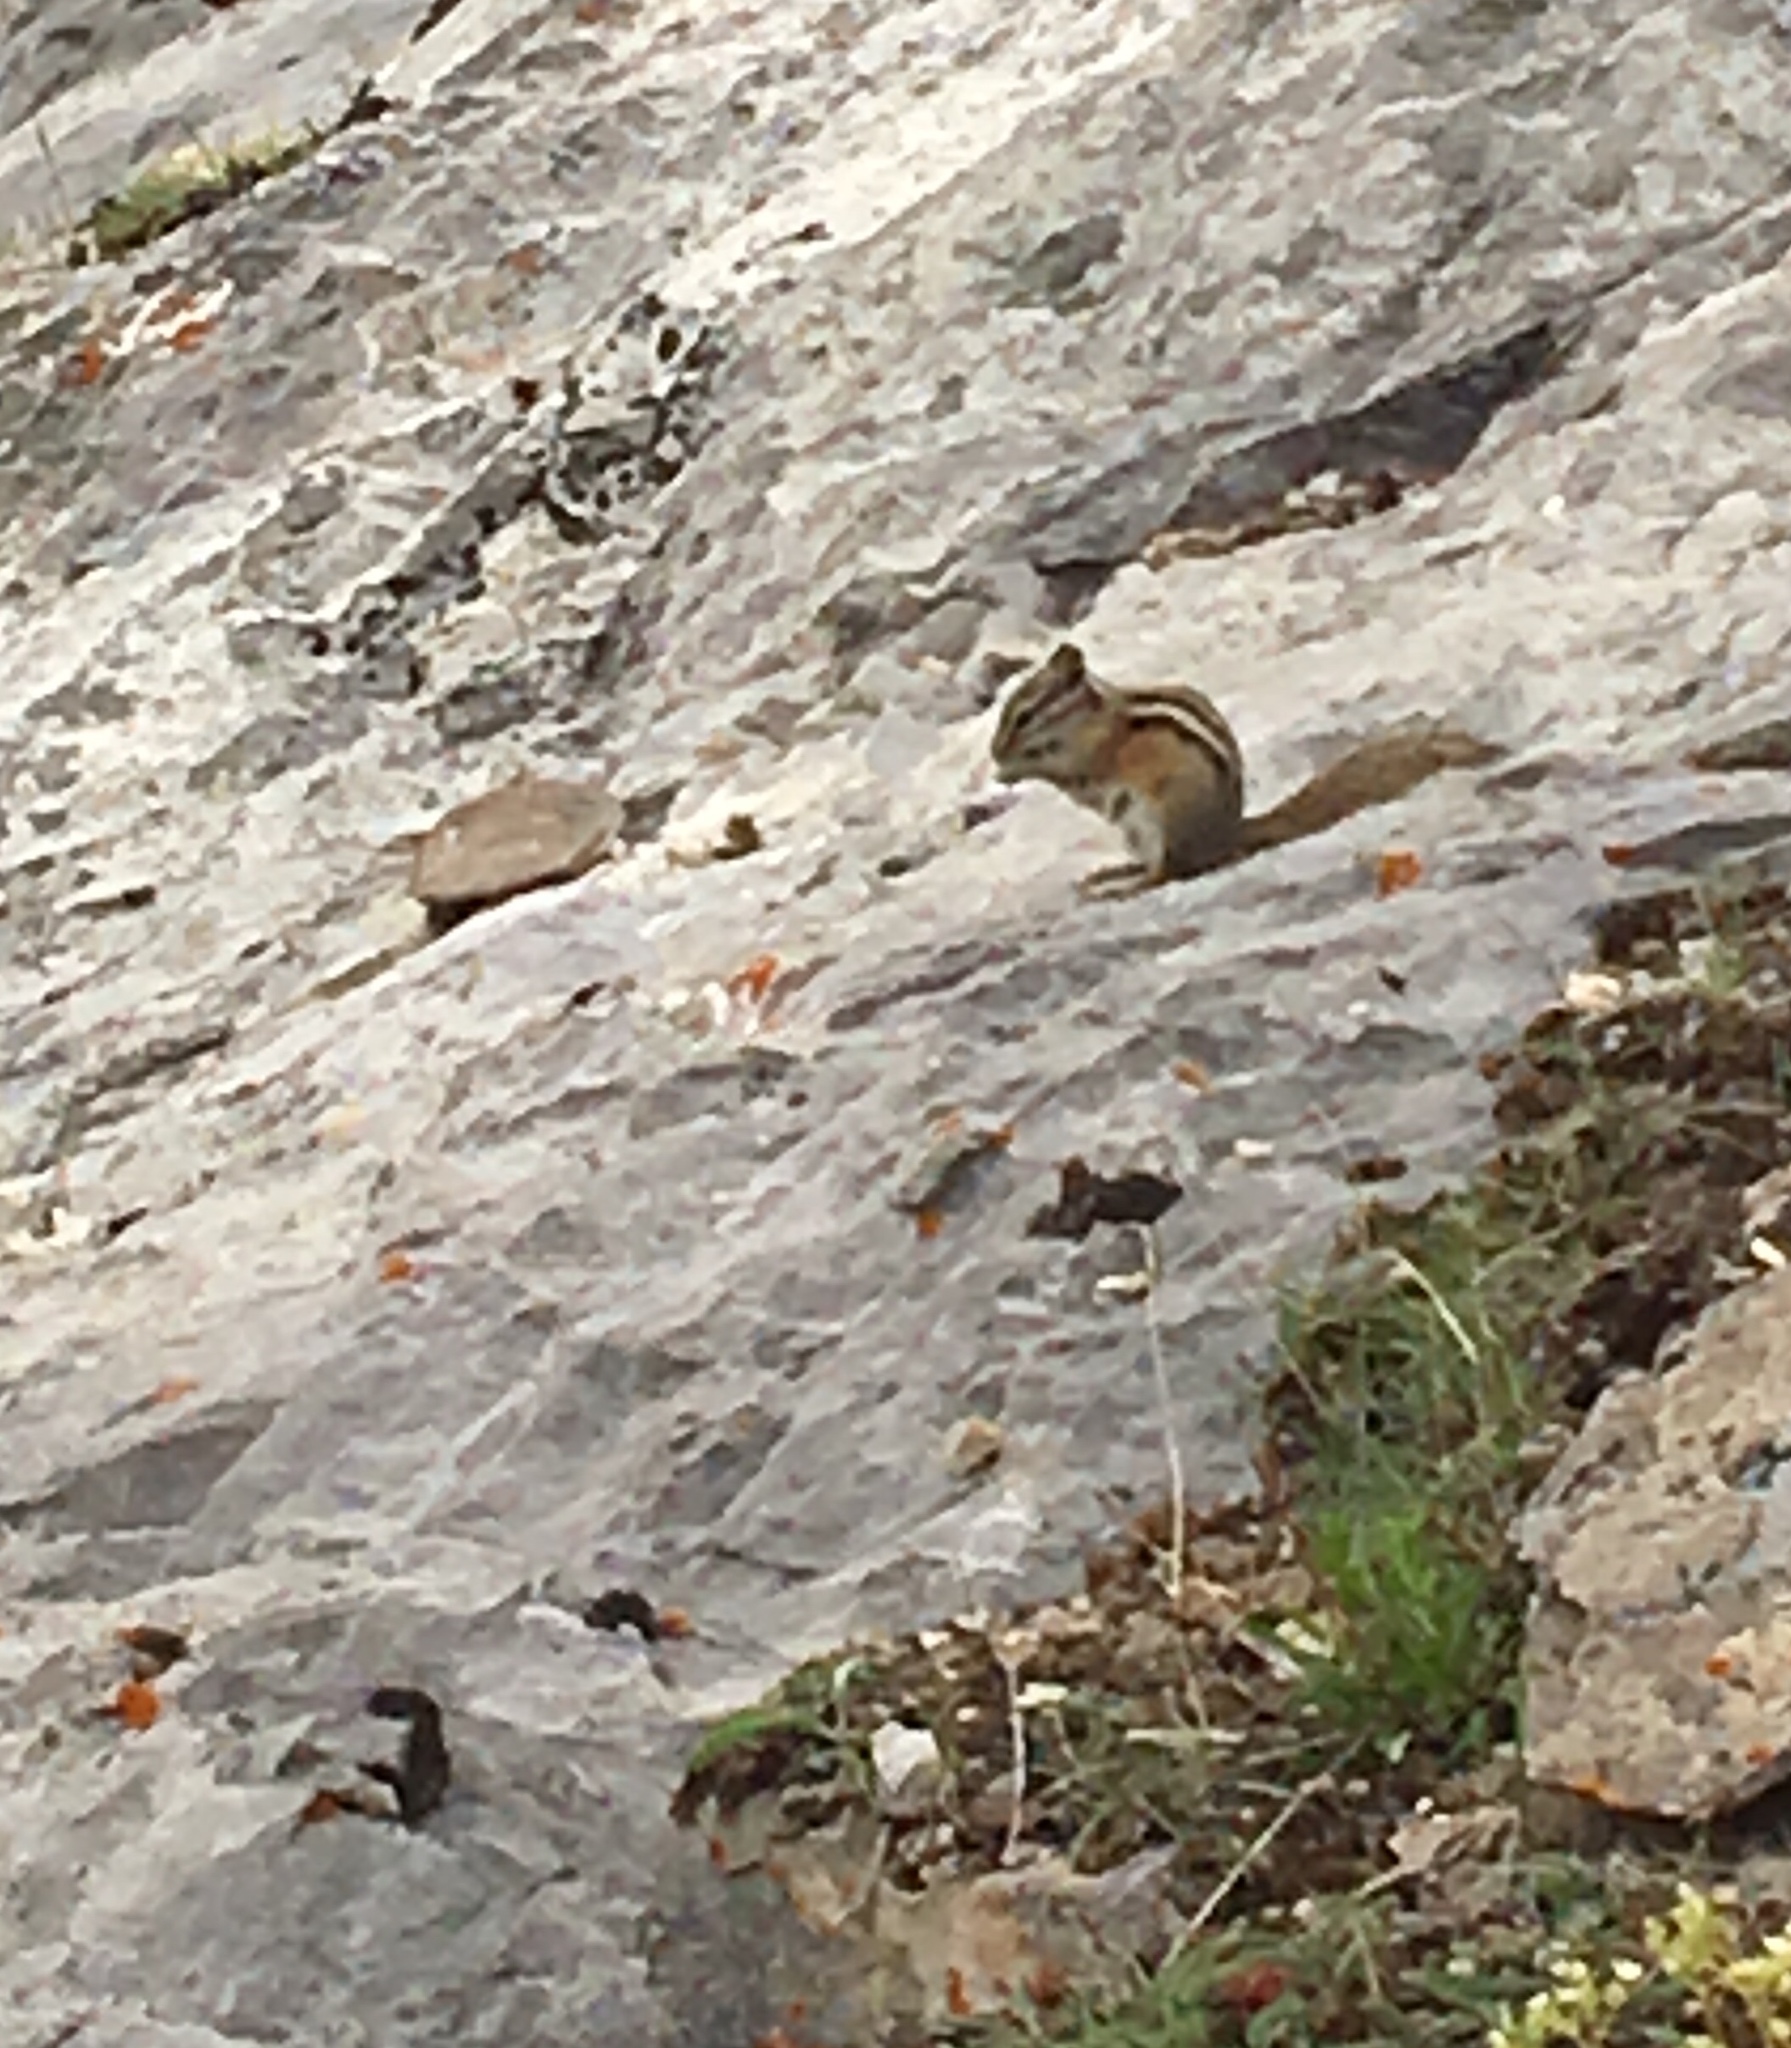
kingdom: Animalia
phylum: Chordata
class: Mammalia
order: Rodentia
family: Sciuridae
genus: Tamias
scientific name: Tamias minimus
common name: Least chipmunk
